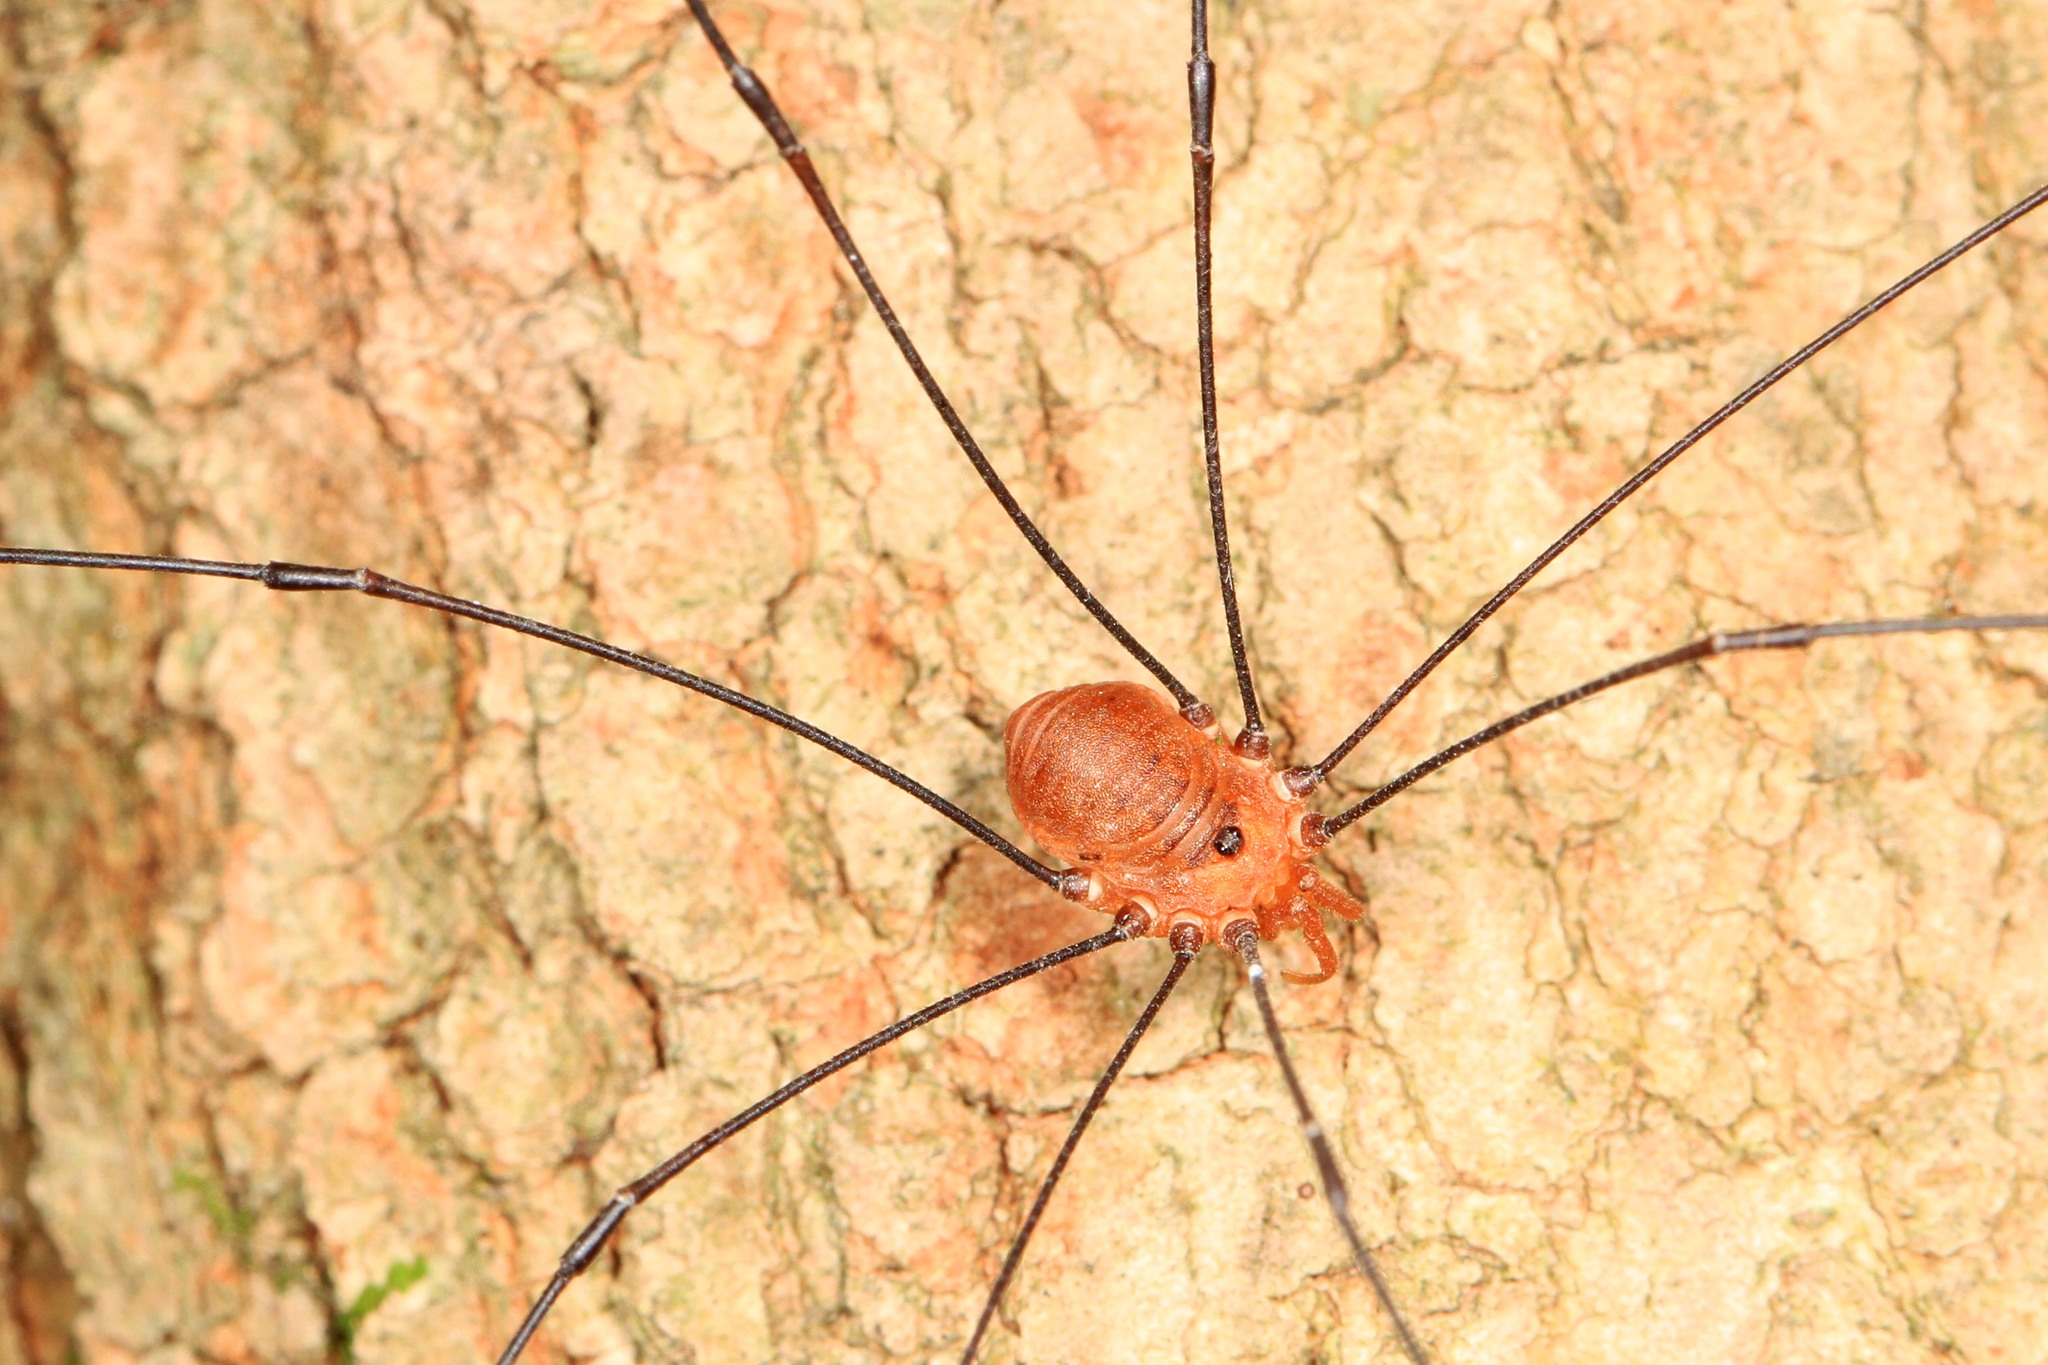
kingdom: Animalia
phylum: Arthropoda
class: Arachnida
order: Opiliones
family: Sclerosomatidae
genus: Leiobunum
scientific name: Leiobunum uxorium
